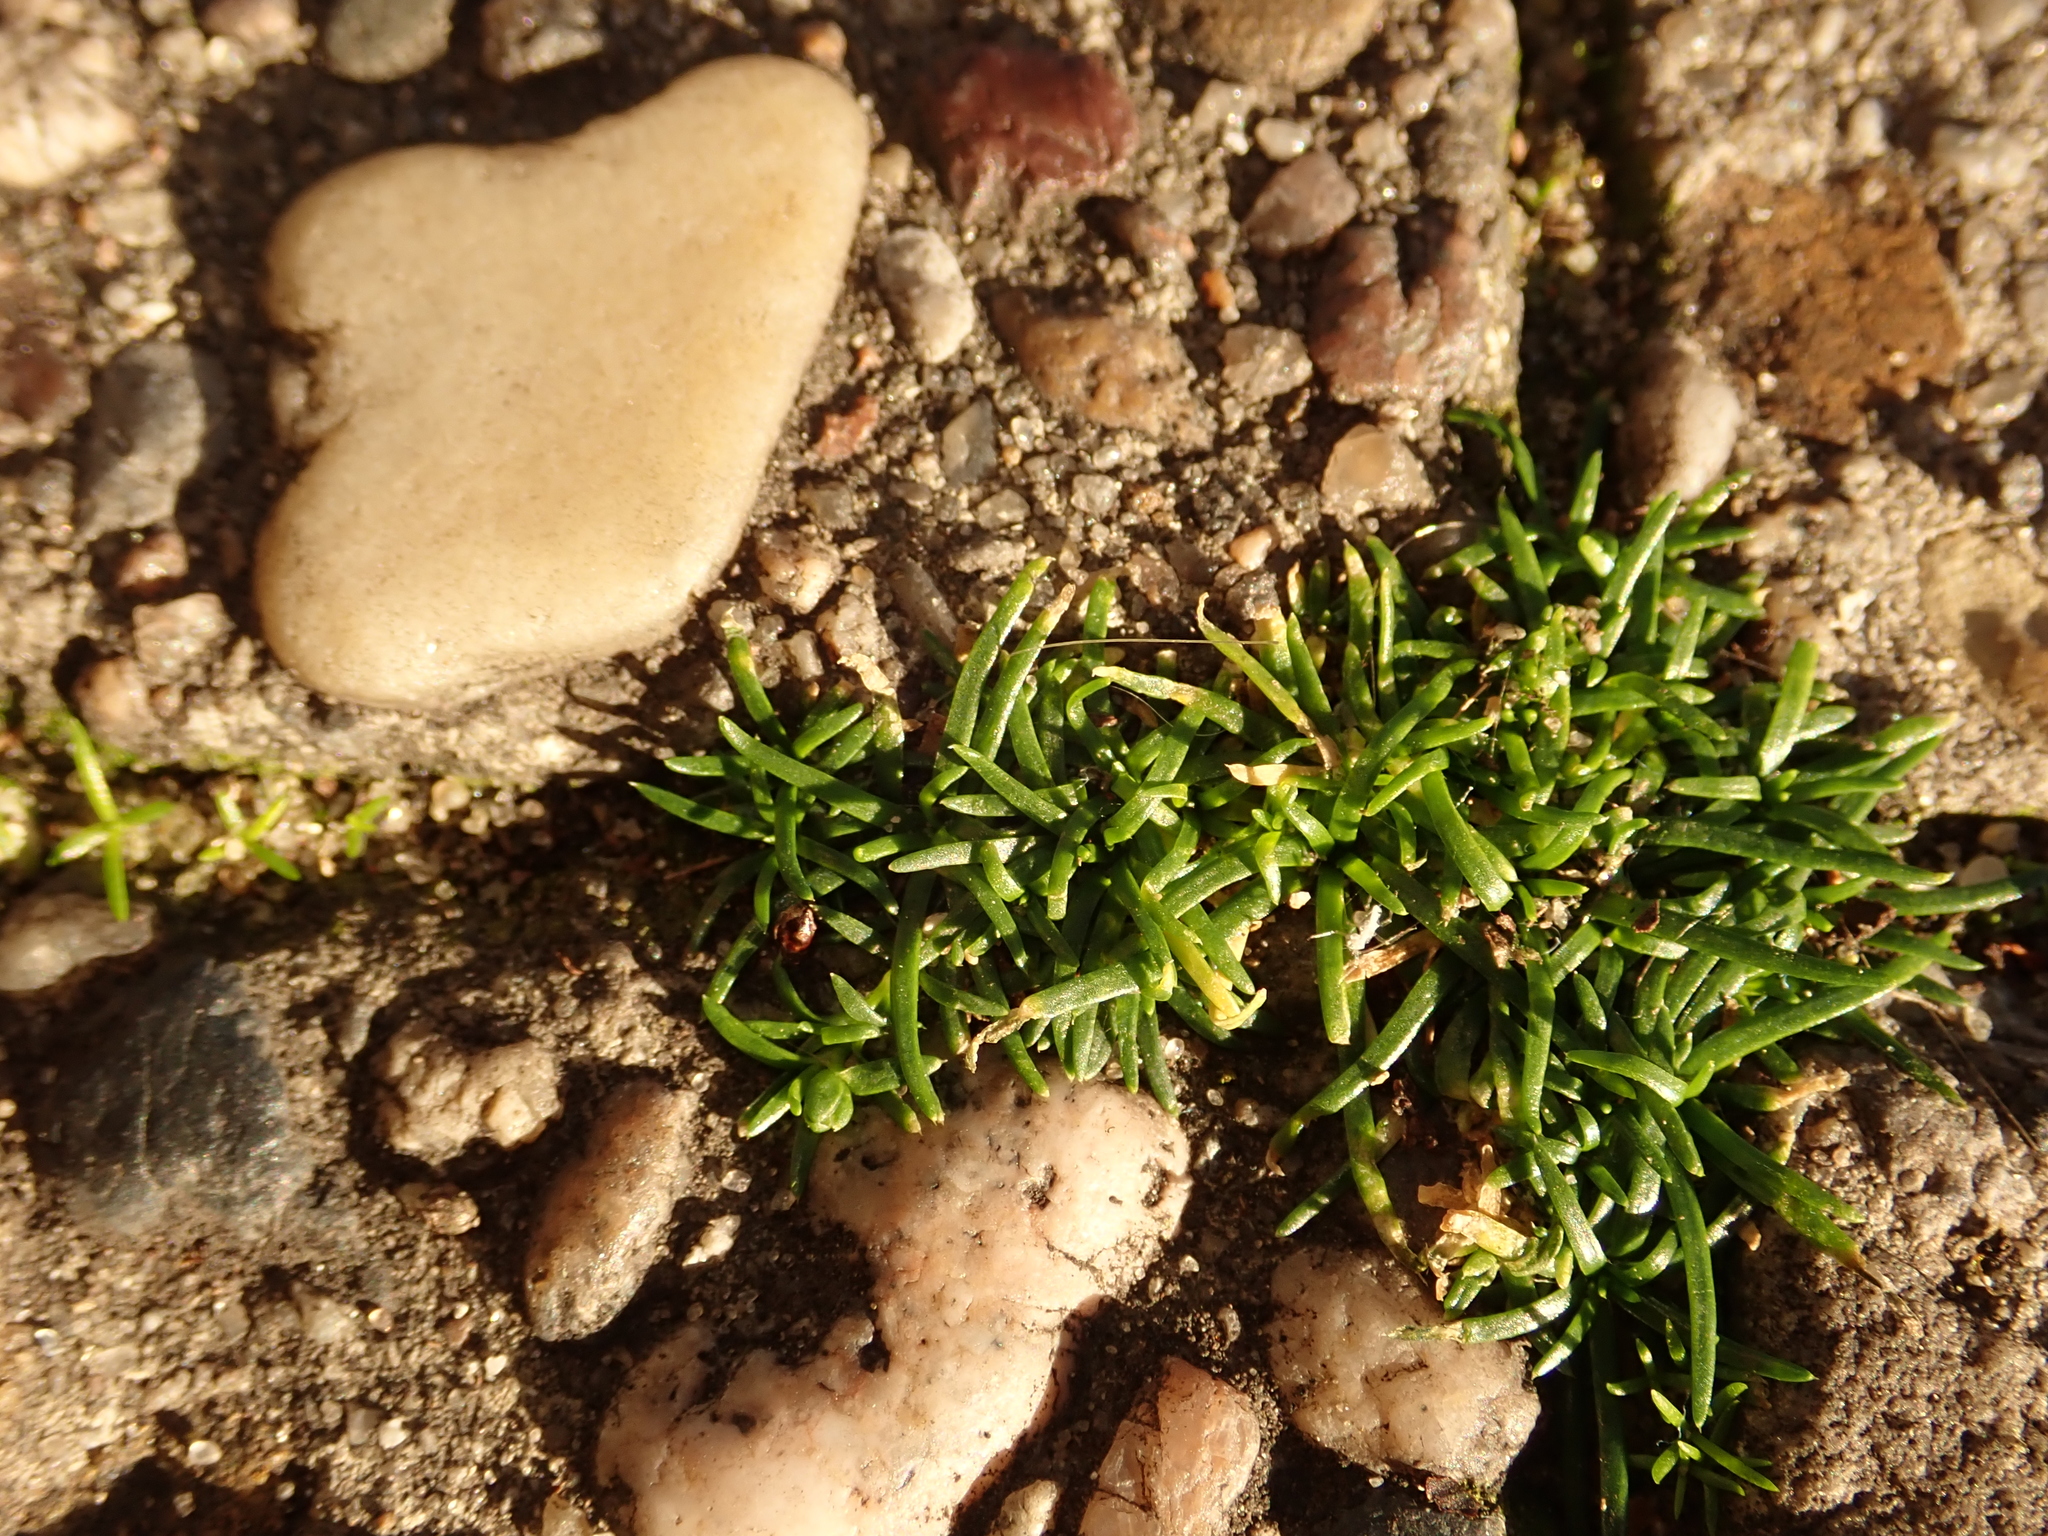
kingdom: Plantae
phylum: Tracheophyta
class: Magnoliopsida
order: Caryophyllales
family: Caryophyllaceae
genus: Sagina
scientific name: Sagina procumbens
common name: Procumbent pearlwort
